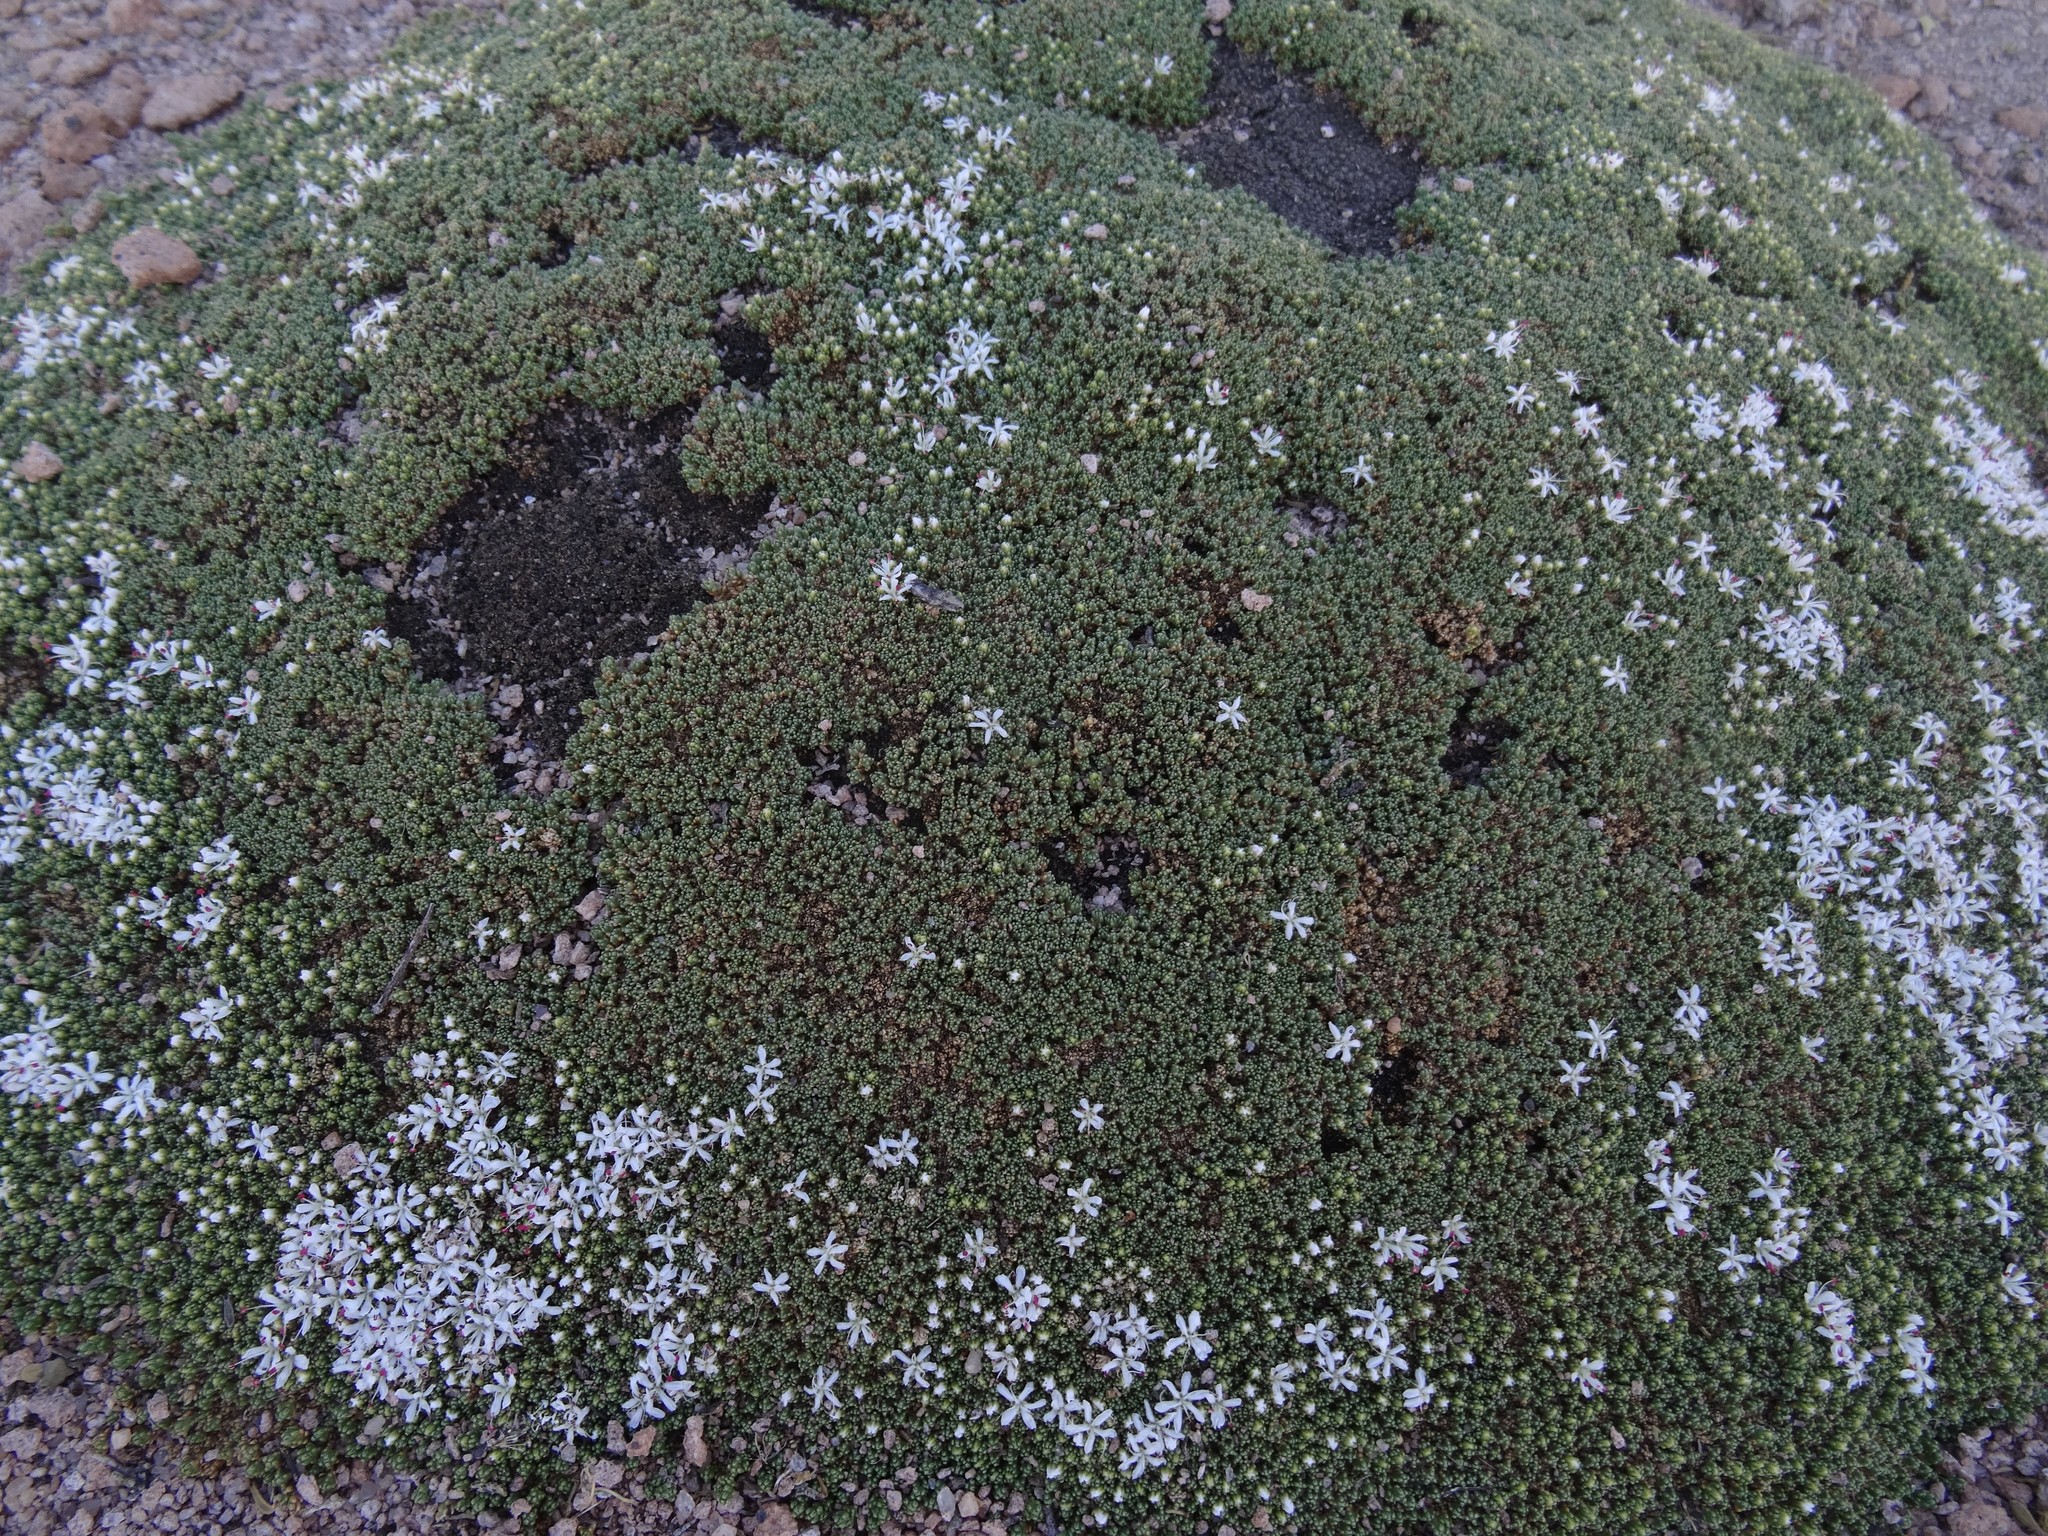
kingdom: Plantae
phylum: Tracheophyta
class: Magnoliopsida
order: Caryophyllales
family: Frankeniaceae
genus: Frankenia
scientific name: Frankenia triandra
